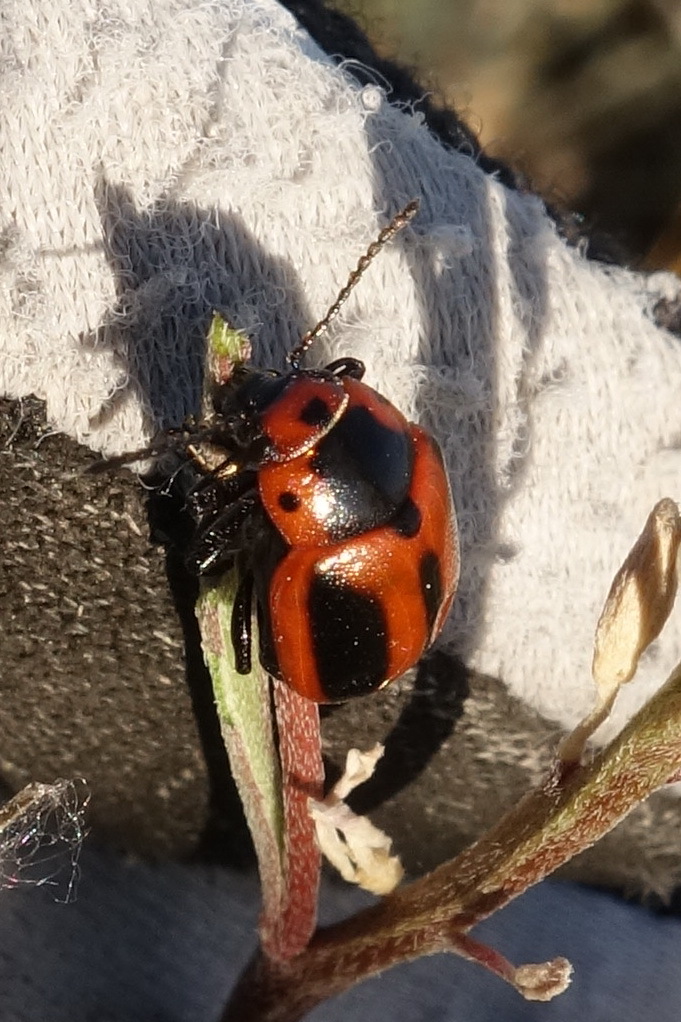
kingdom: Animalia
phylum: Arthropoda
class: Insecta
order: Coleoptera
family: Chrysomelidae
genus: Entomoscelis
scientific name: Entomoscelis adonidis
